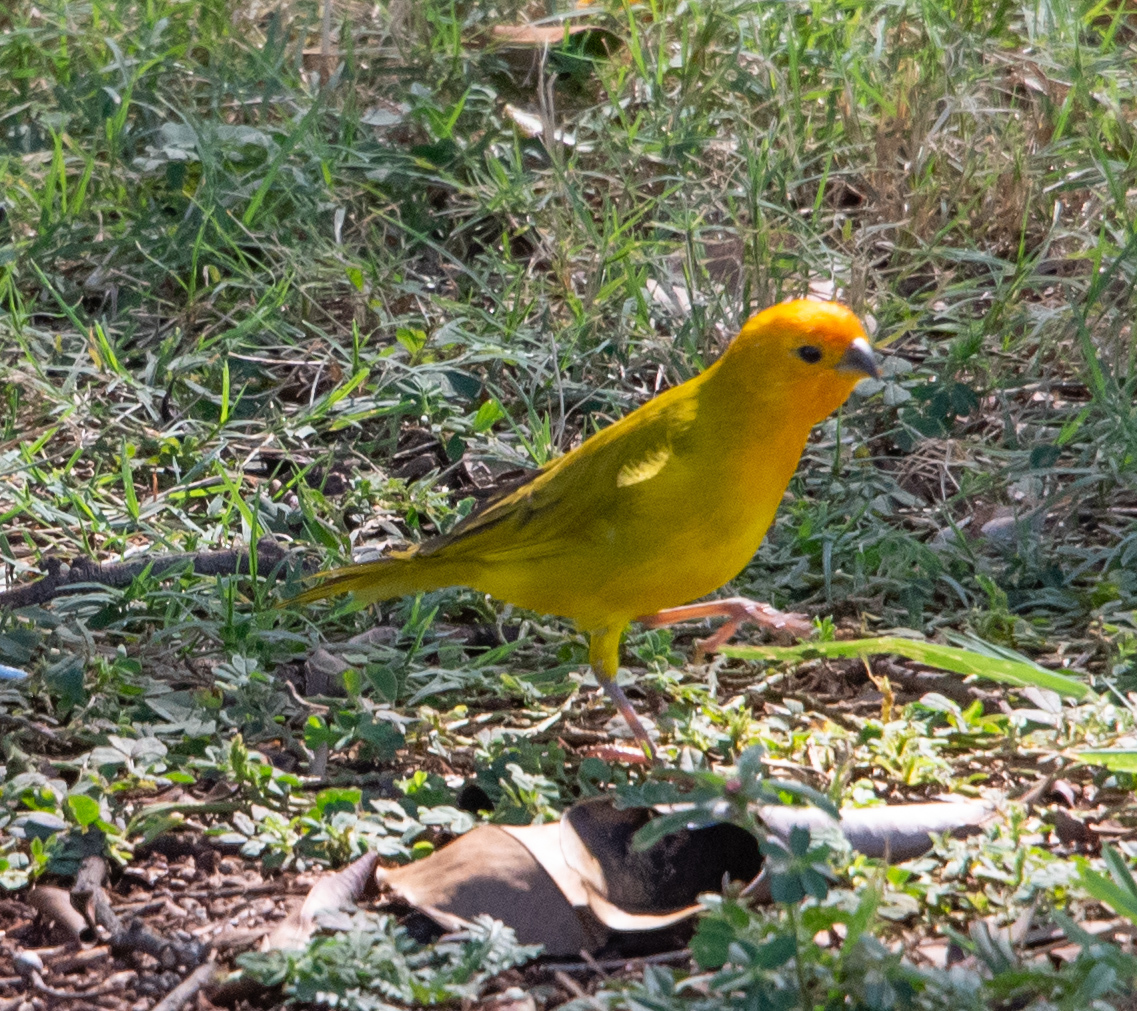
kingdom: Animalia
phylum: Chordata
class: Aves
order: Passeriformes
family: Thraupidae
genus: Sicalis
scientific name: Sicalis flaveola
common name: Saffron finch
